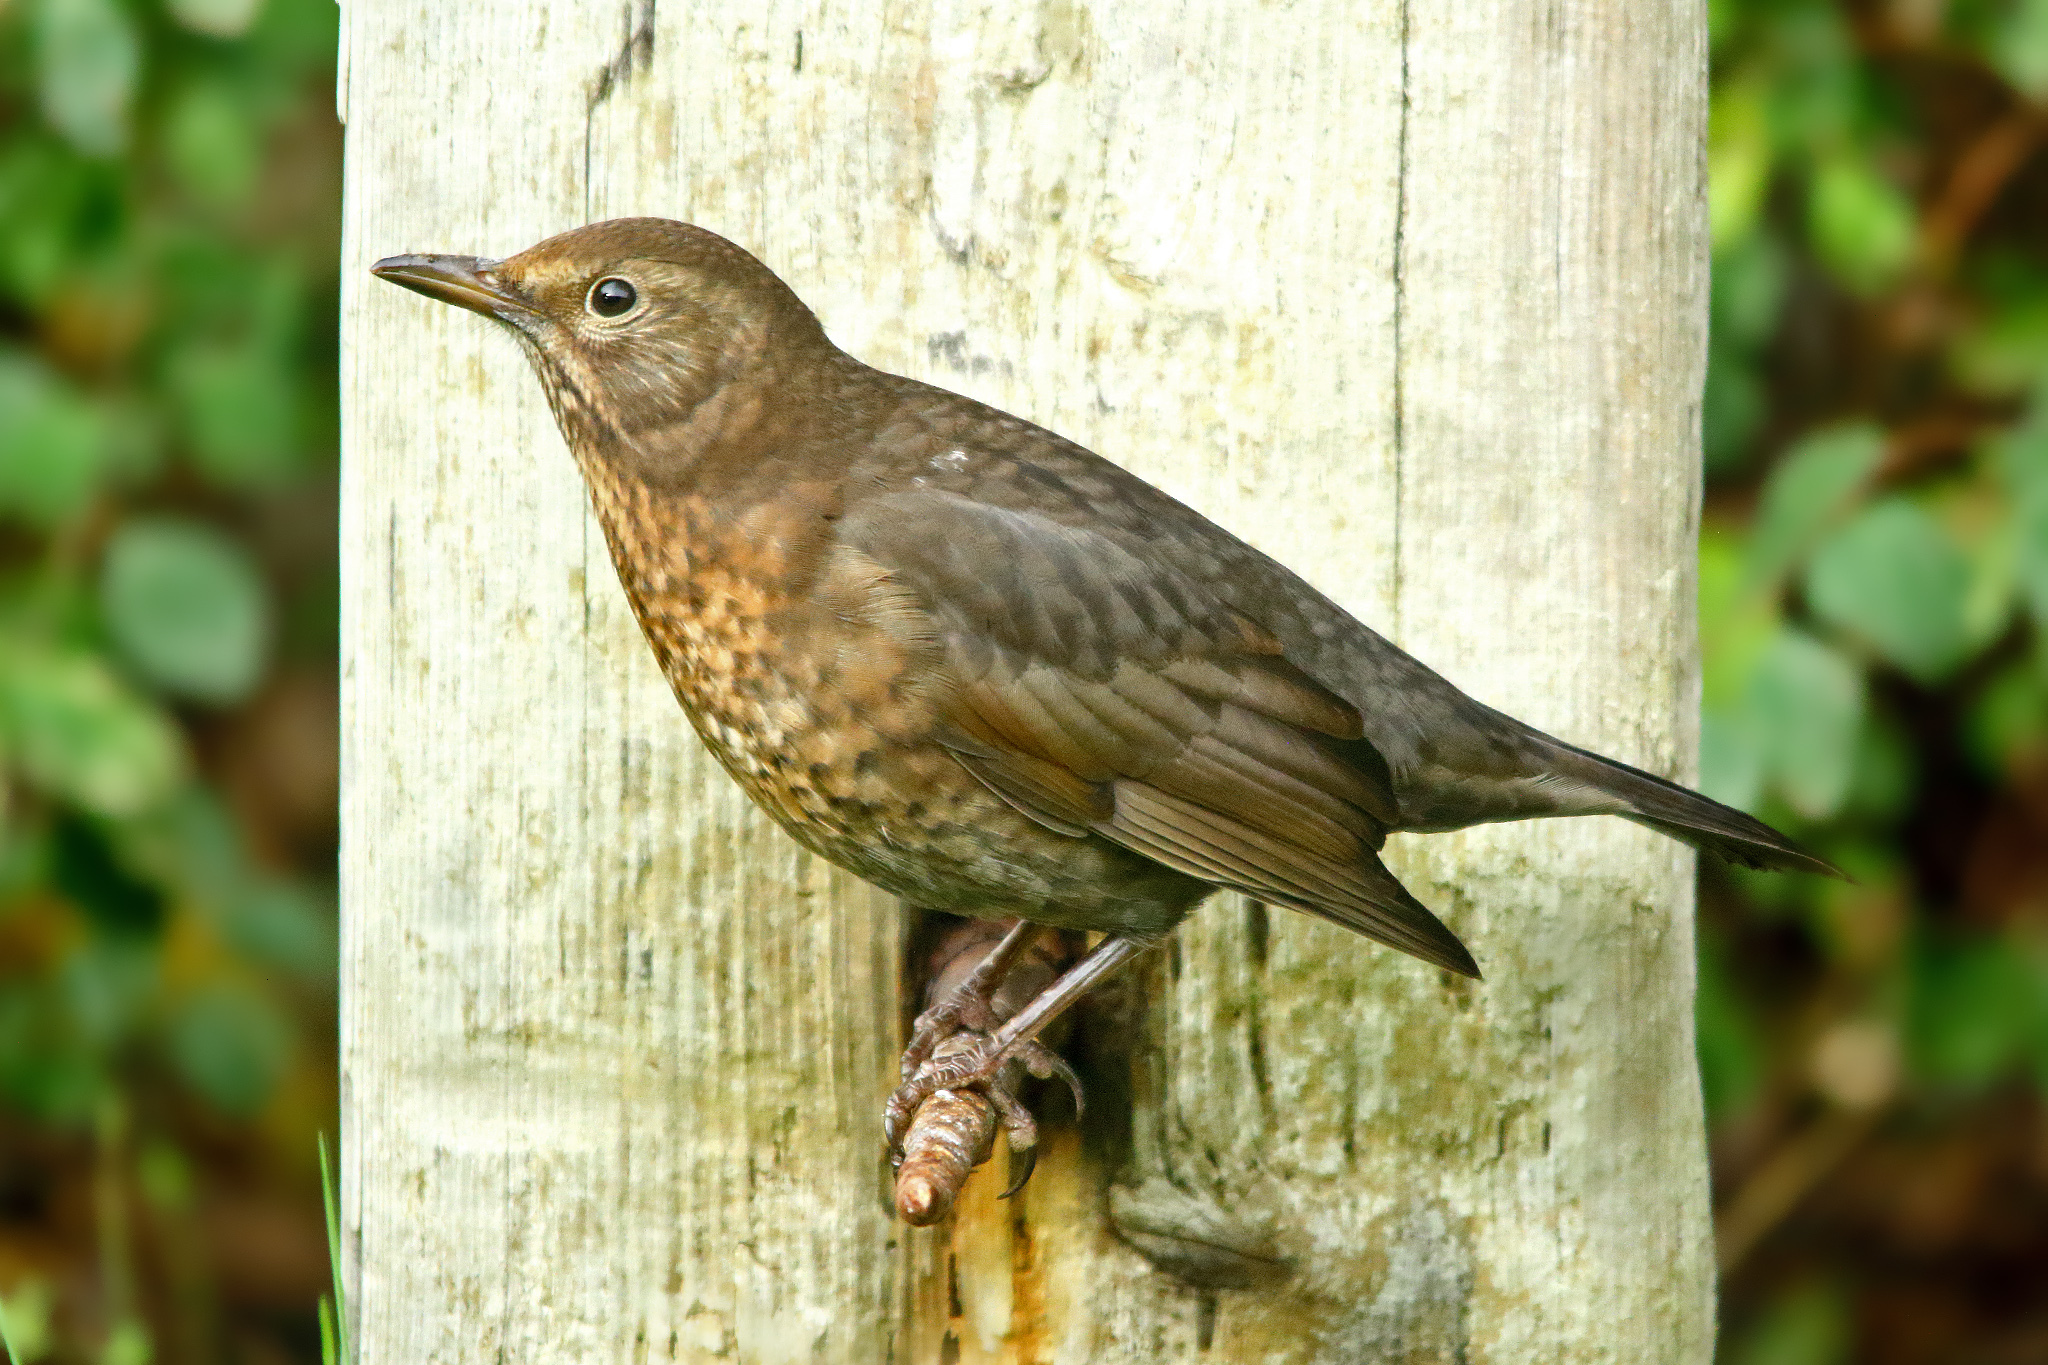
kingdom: Animalia
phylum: Chordata
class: Aves
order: Passeriformes
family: Turdidae
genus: Turdus
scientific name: Turdus merula
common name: Common blackbird
